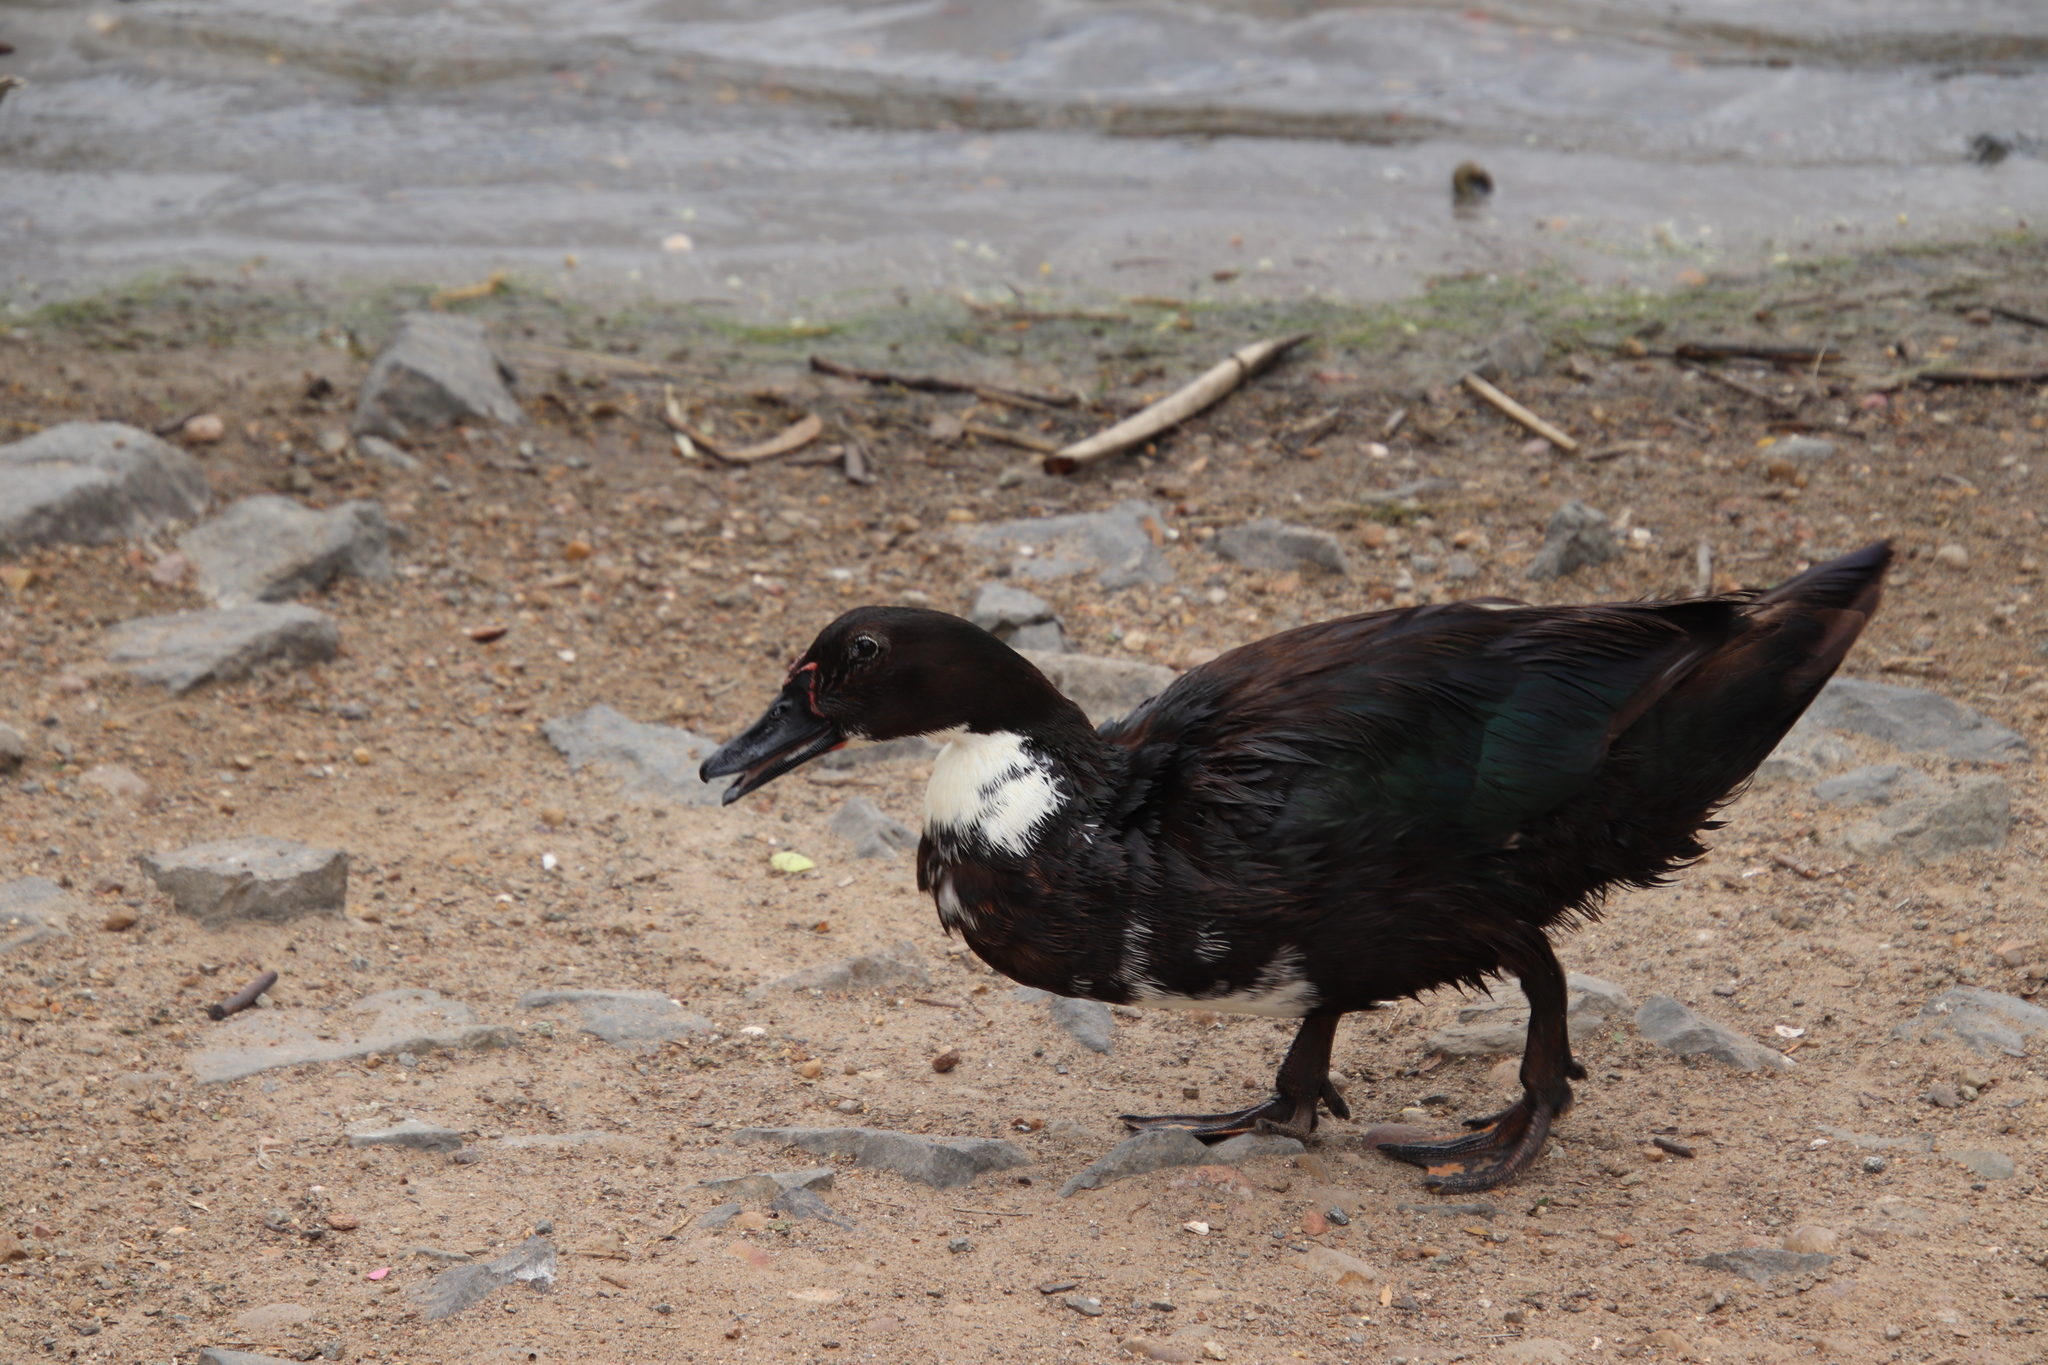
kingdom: Animalia
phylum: Chordata
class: Aves
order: Anseriformes
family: Anatidae
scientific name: Anatidae
